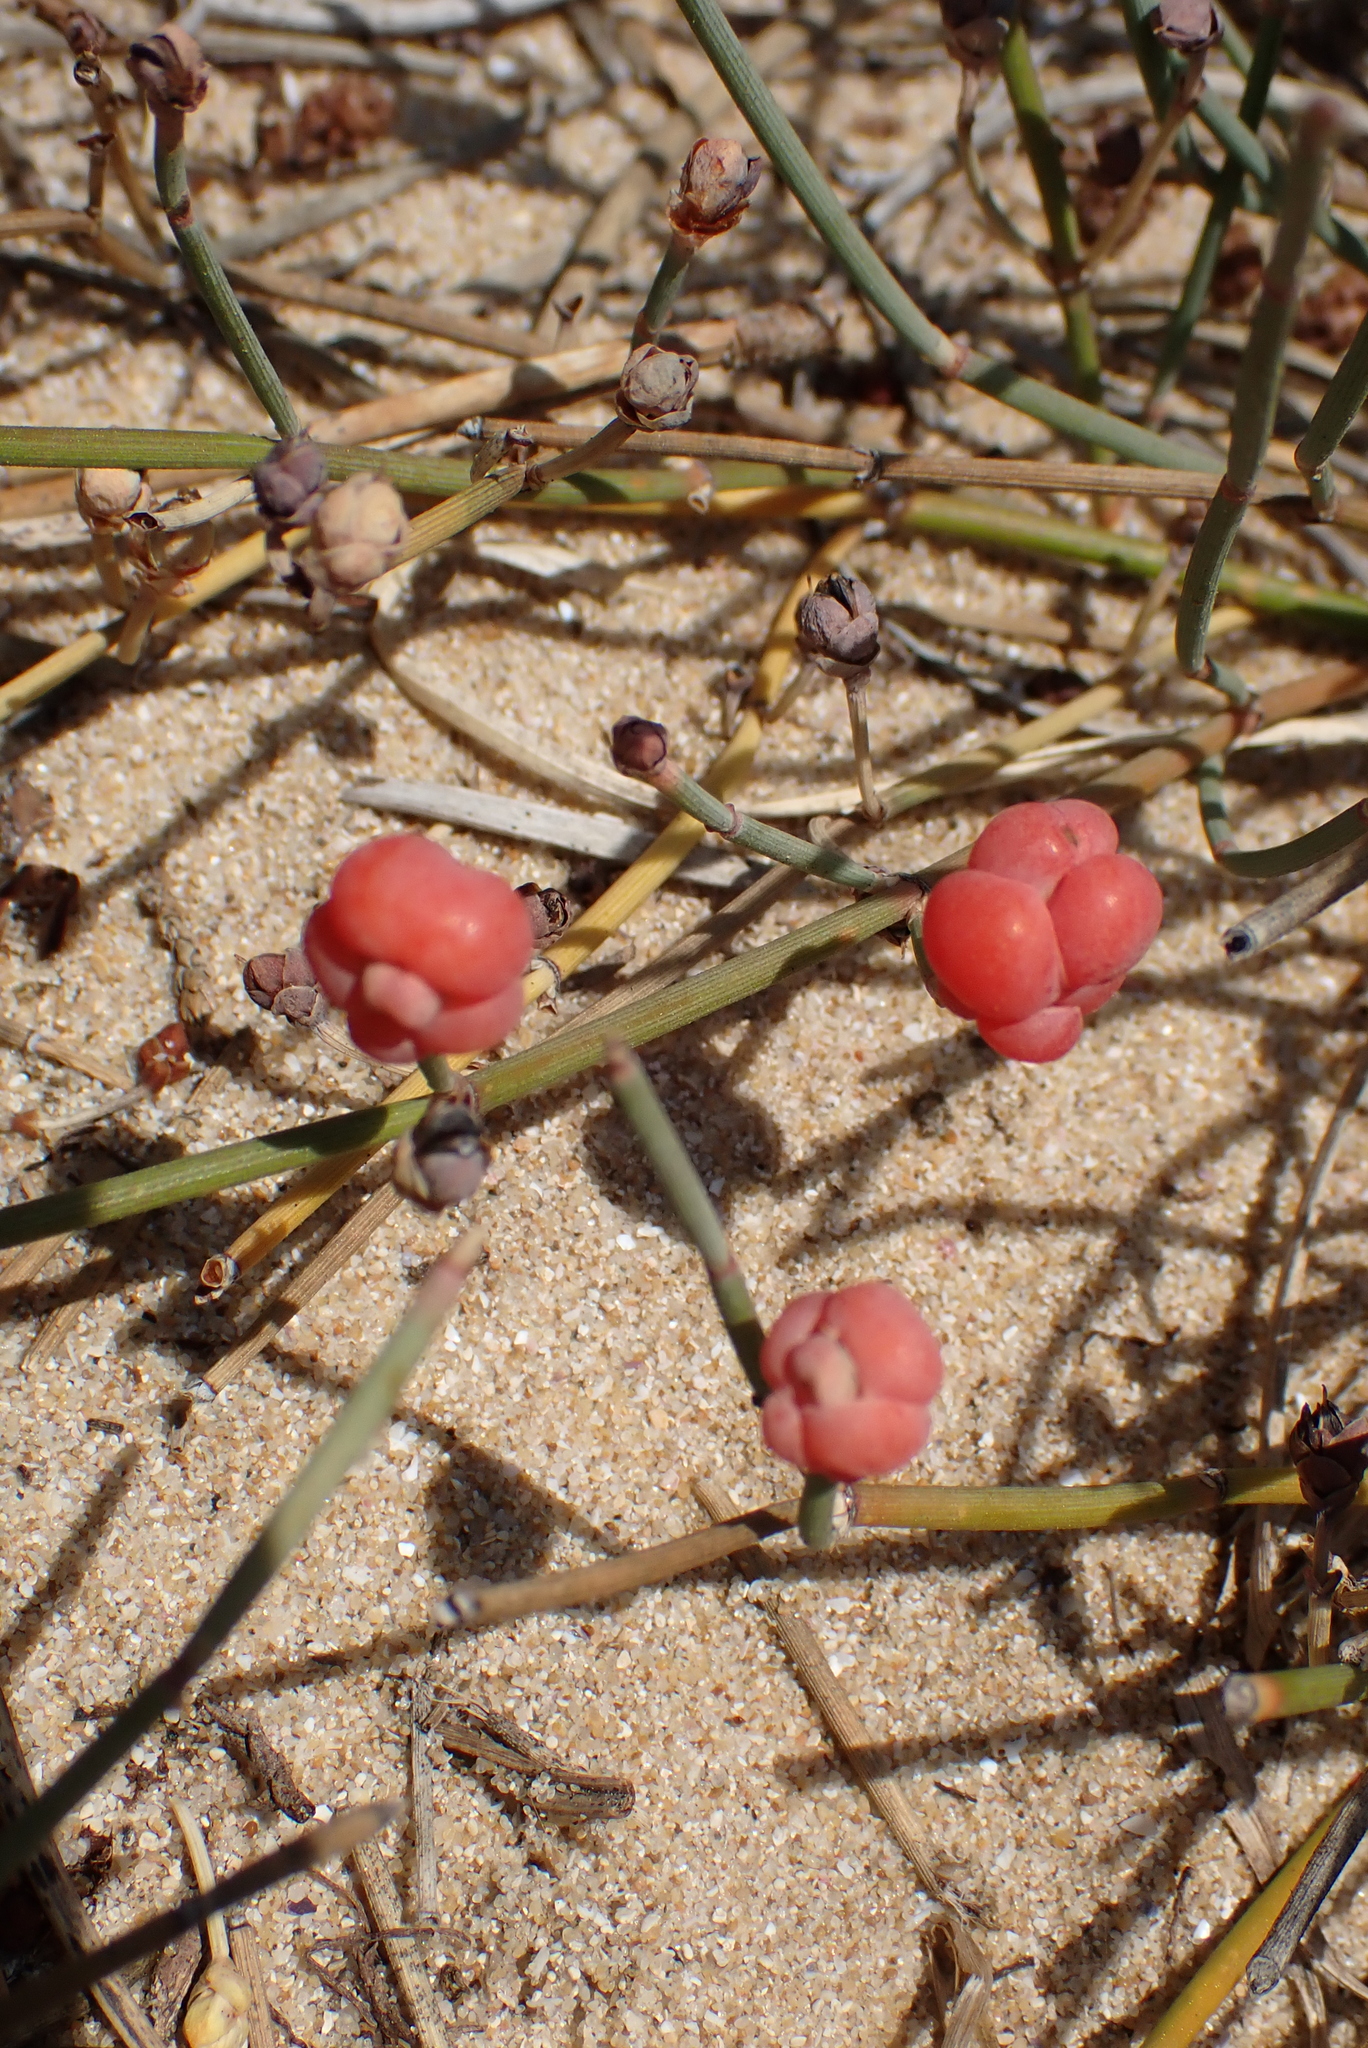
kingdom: Plantae
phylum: Tracheophyta
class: Gnetopsida
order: Ephedrales
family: Ephedraceae
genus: Ephedra
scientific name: Ephedra distachya
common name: Sea grape
